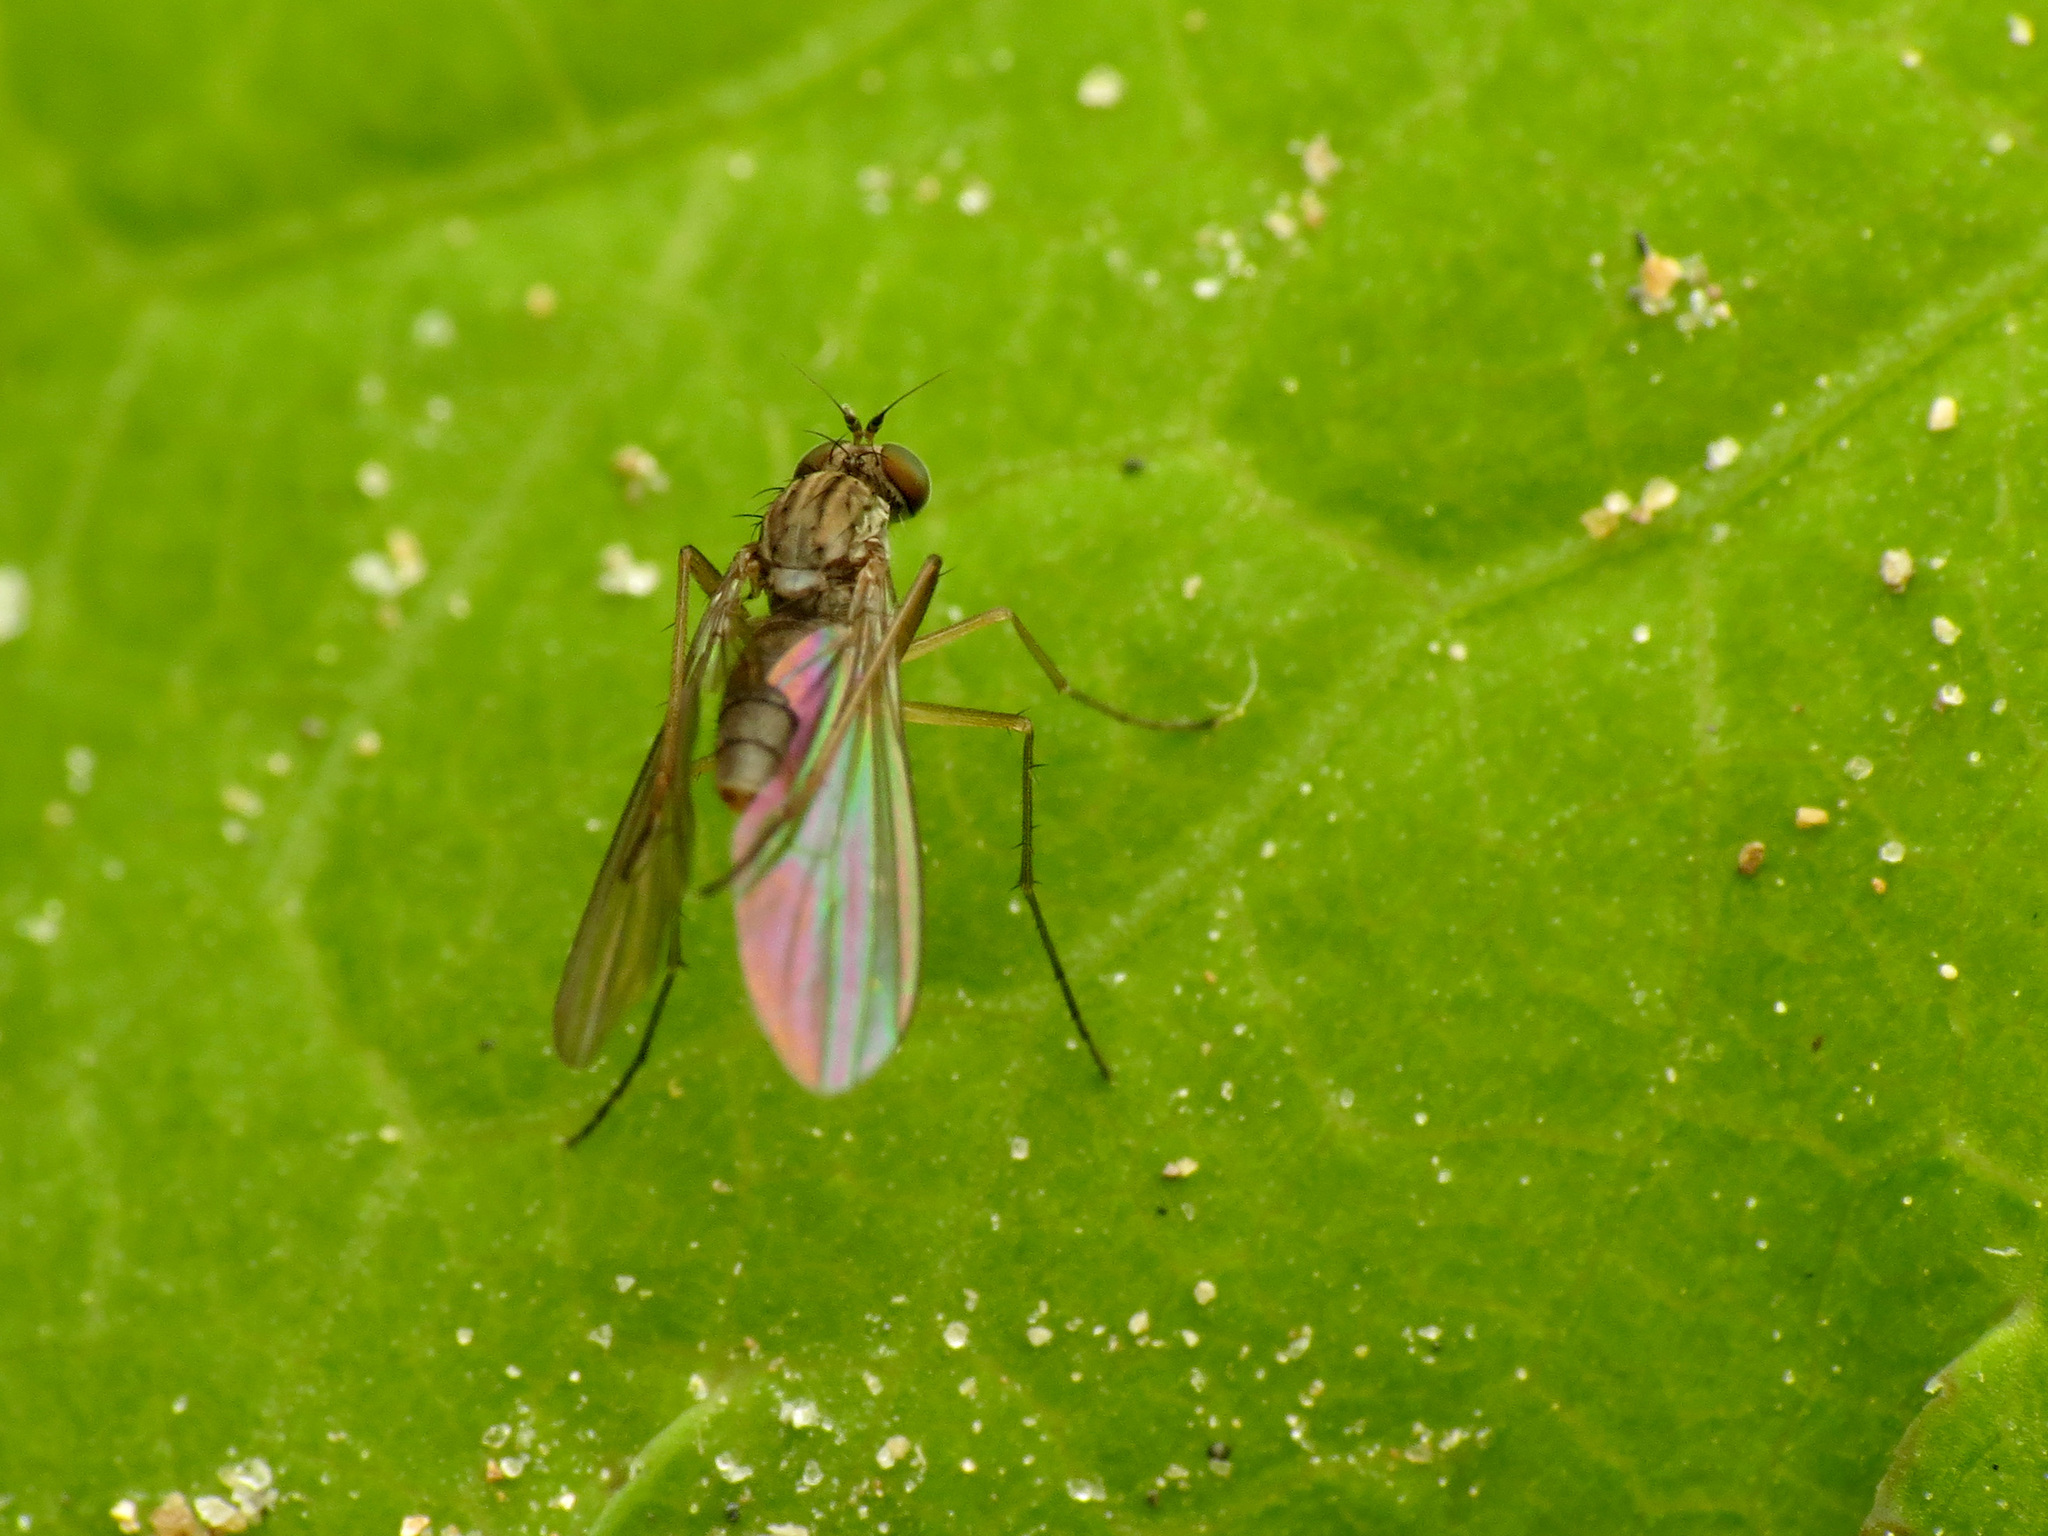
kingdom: Animalia
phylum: Arthropoda
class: Insecta
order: Diptera
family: Dolichopodidae
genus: Sympycnus
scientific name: Sympycnus lineatus
